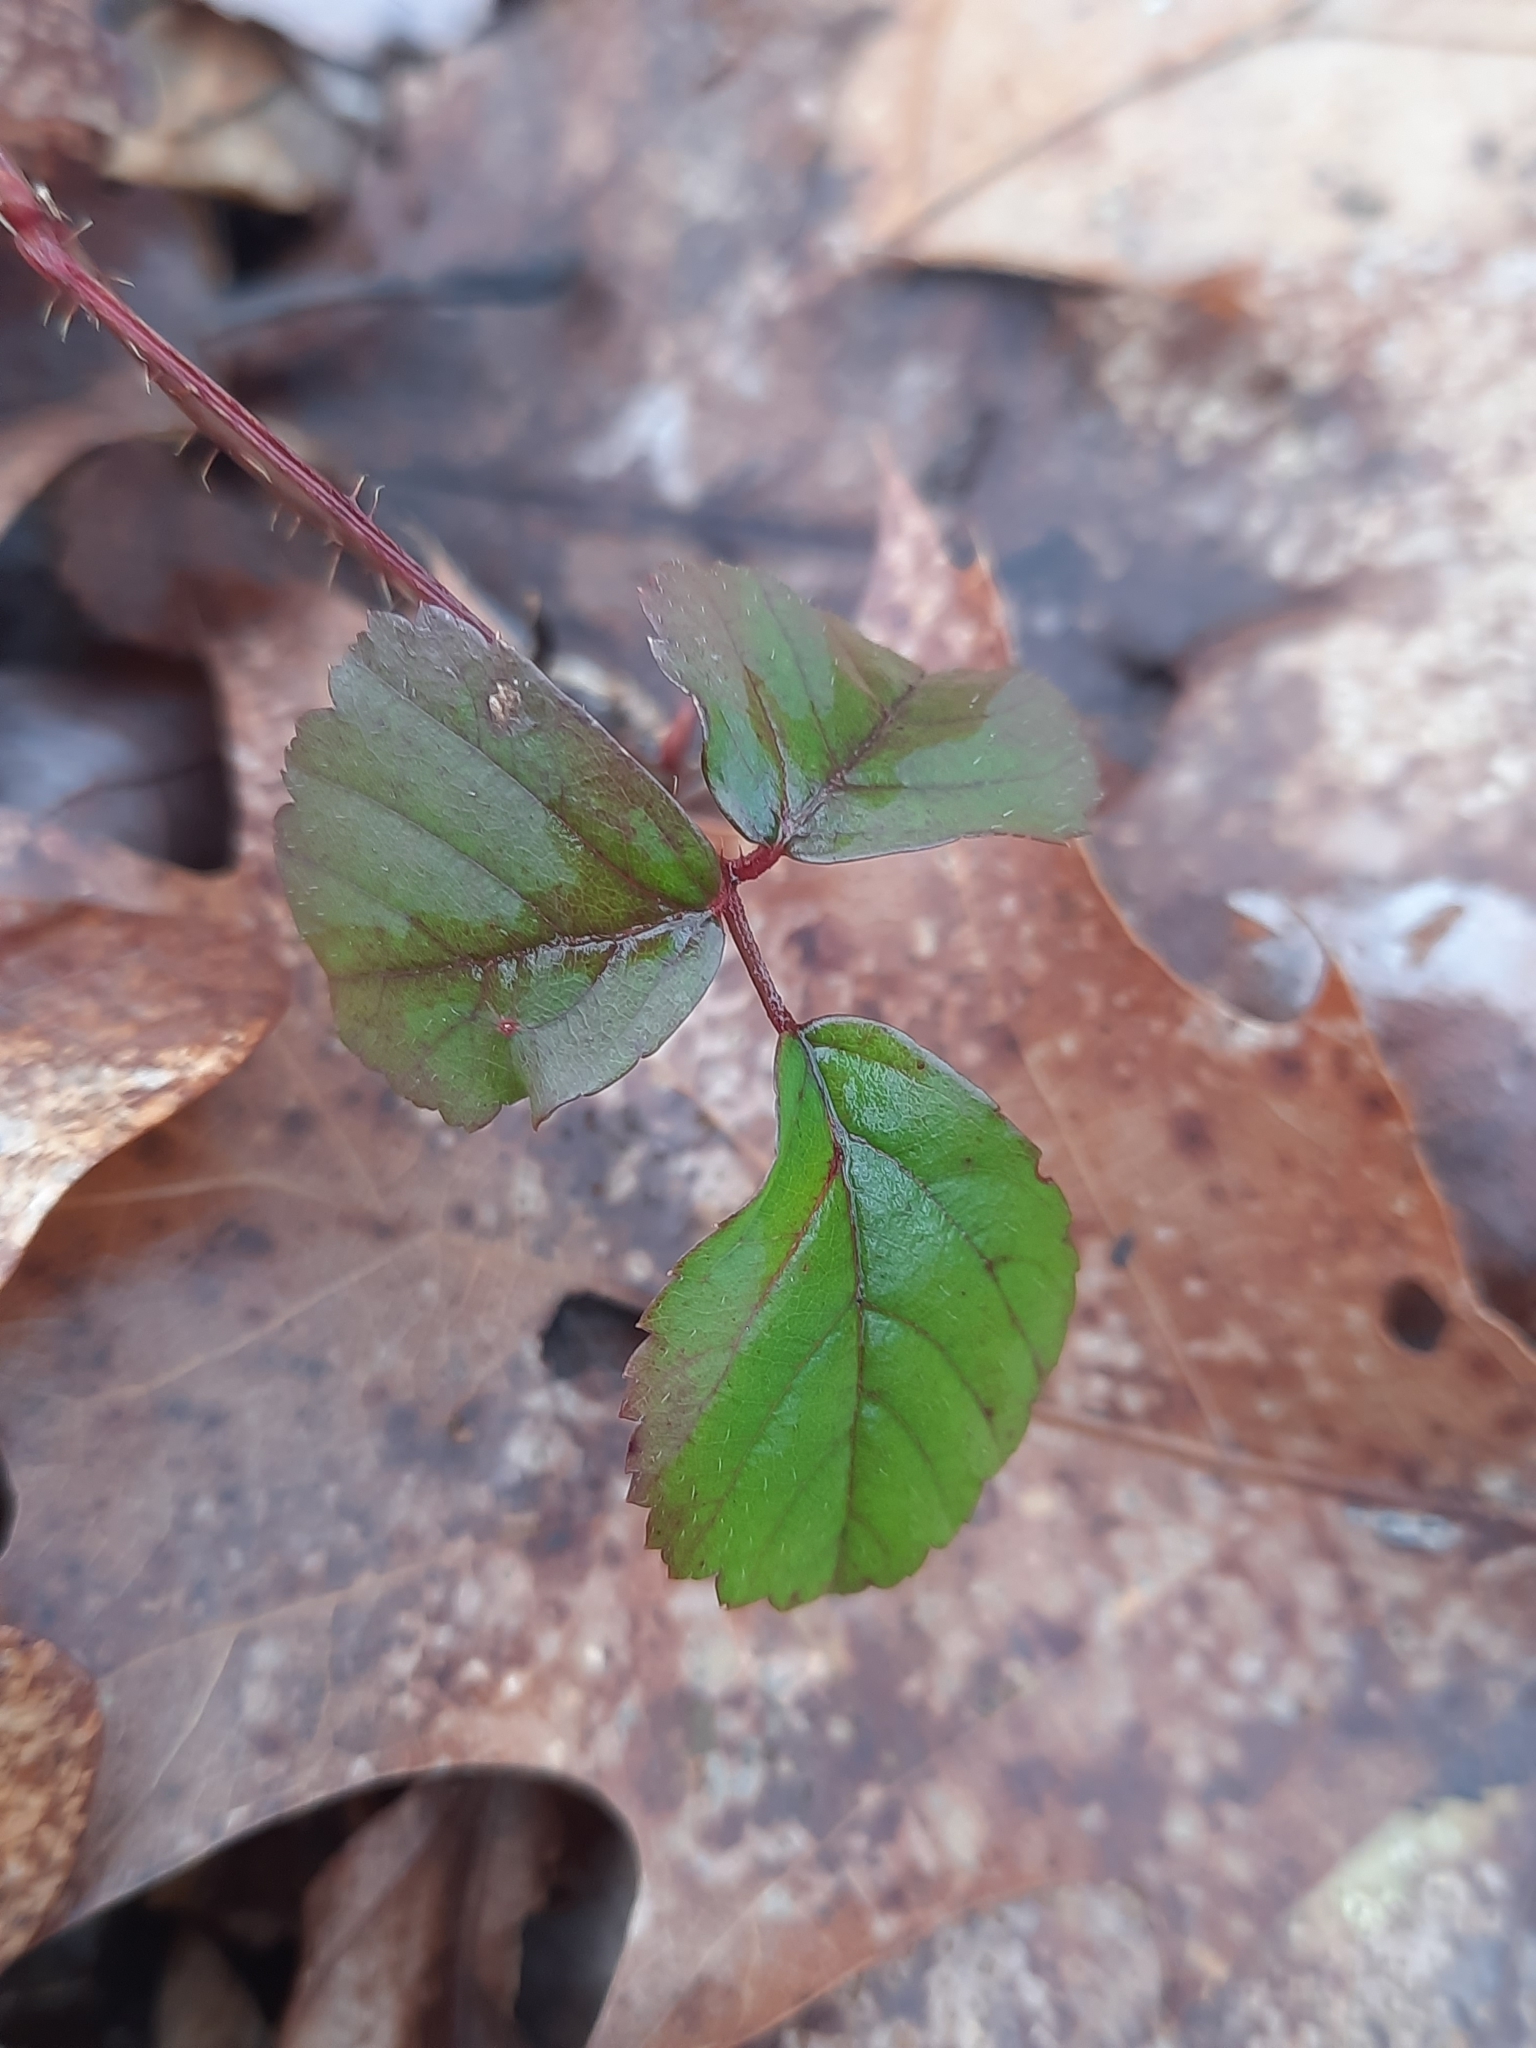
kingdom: Plantae
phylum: Tracheophyta
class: Magnoliopsida
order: Rosales
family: Rosaceae
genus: Rubus
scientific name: Rubus hispidus
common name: Running blackberry
